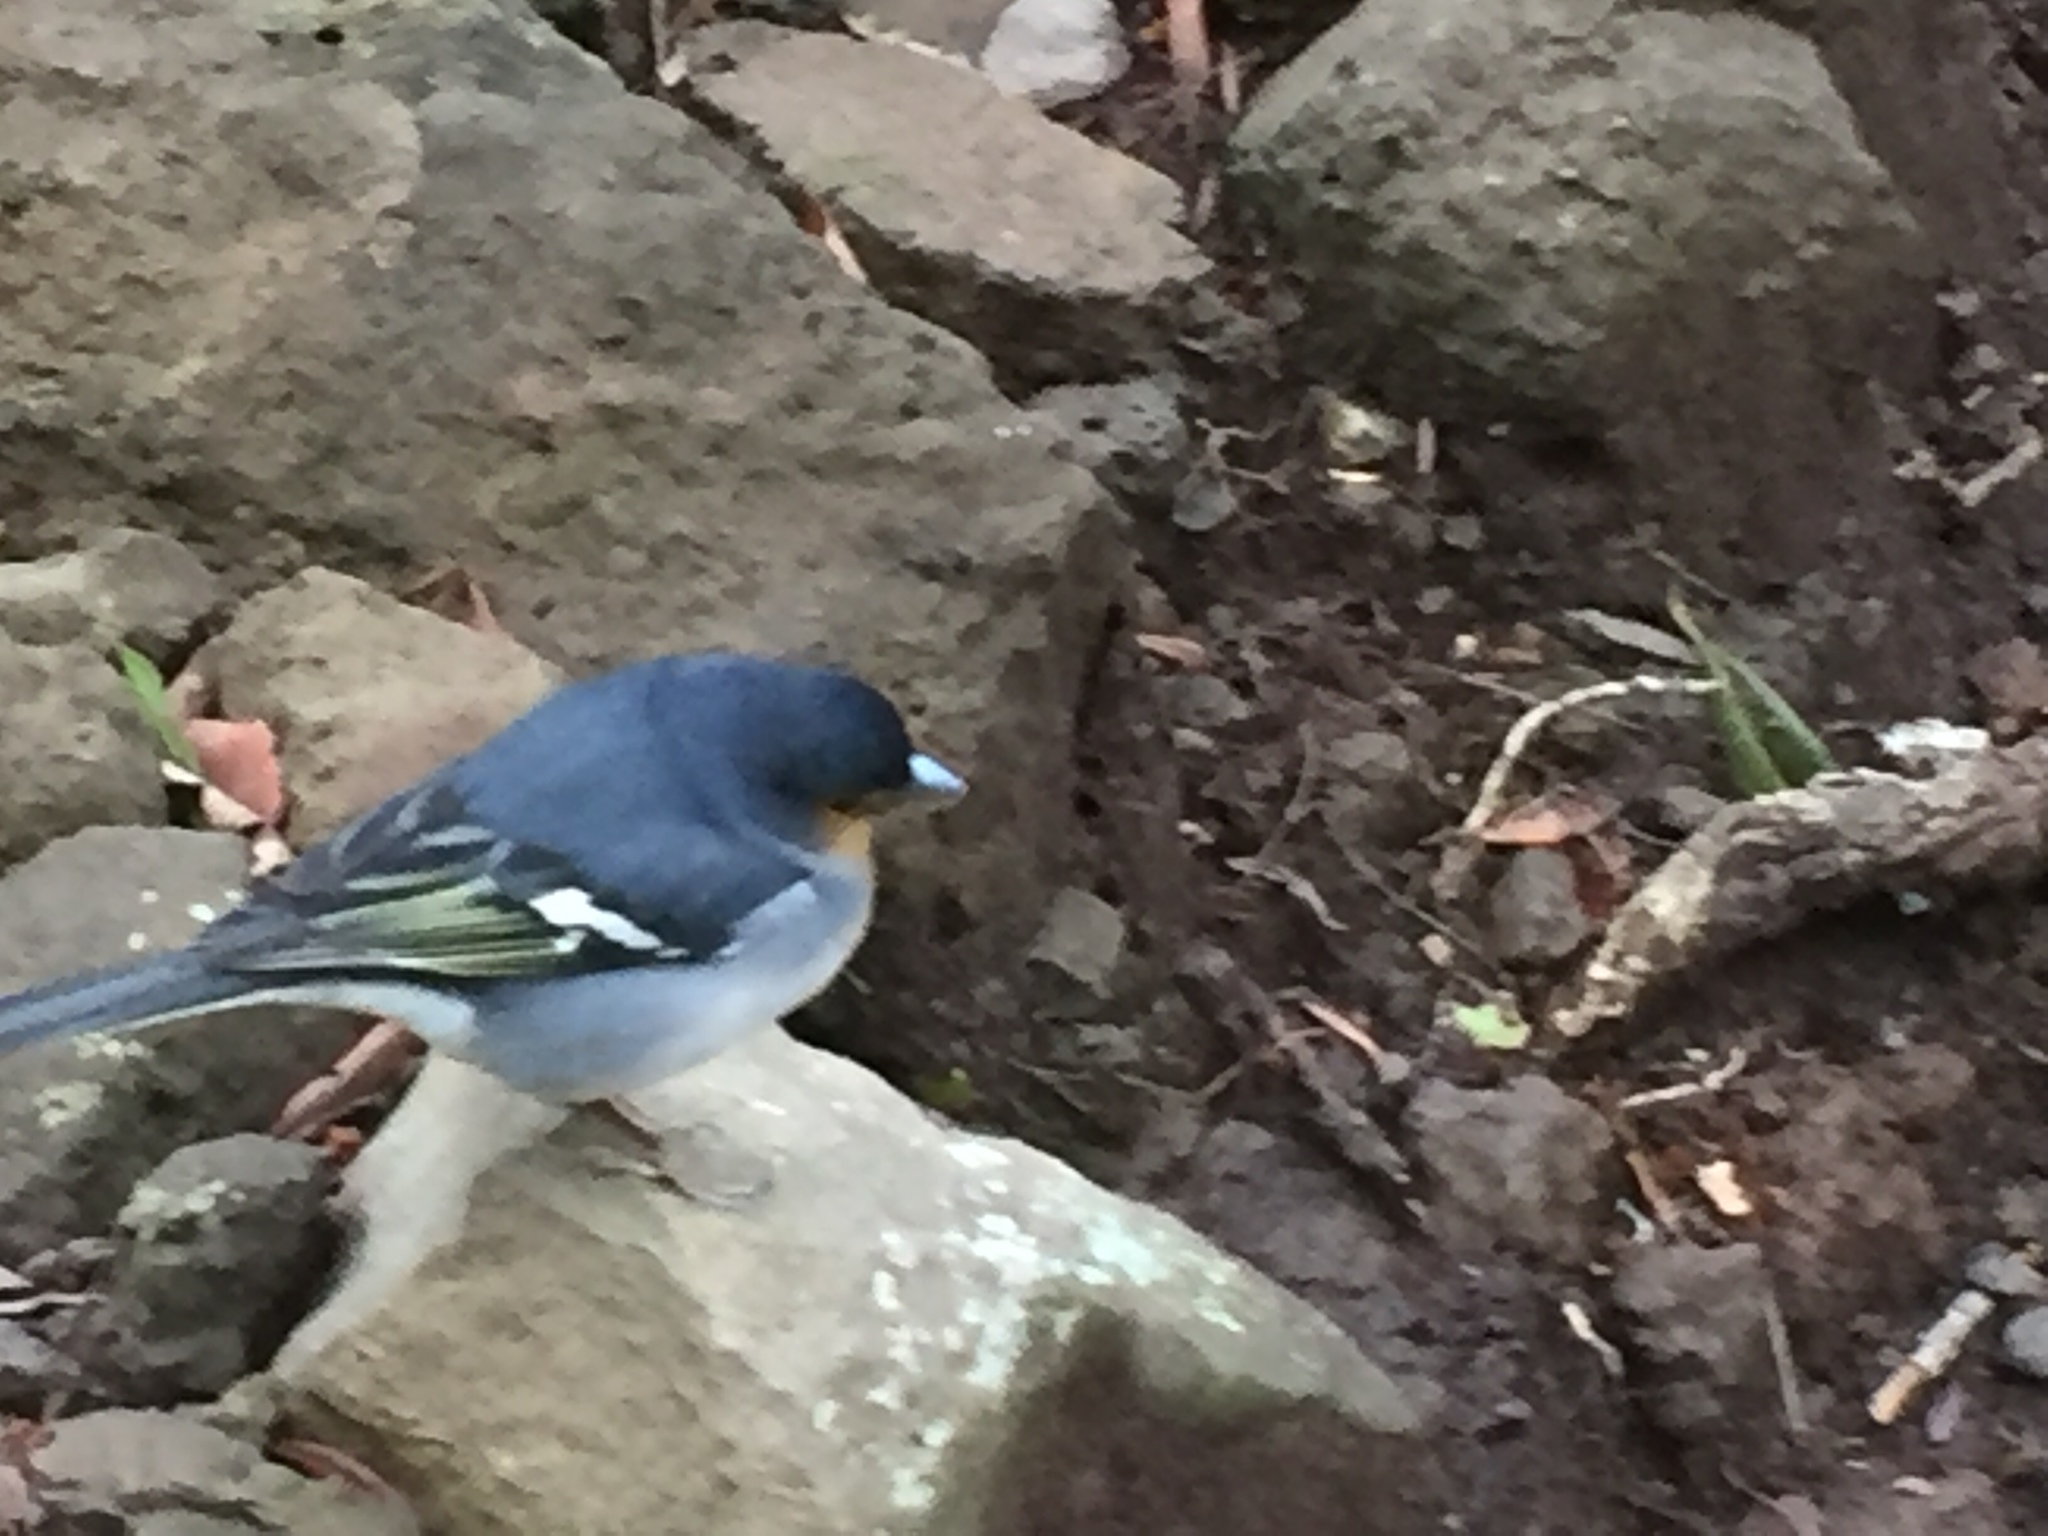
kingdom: Animalia
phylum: Chordata
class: Aves
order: Passeriformes
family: Fringillidae
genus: Fringilla
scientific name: Fringilla canariensis
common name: Canary islands chaffinch
